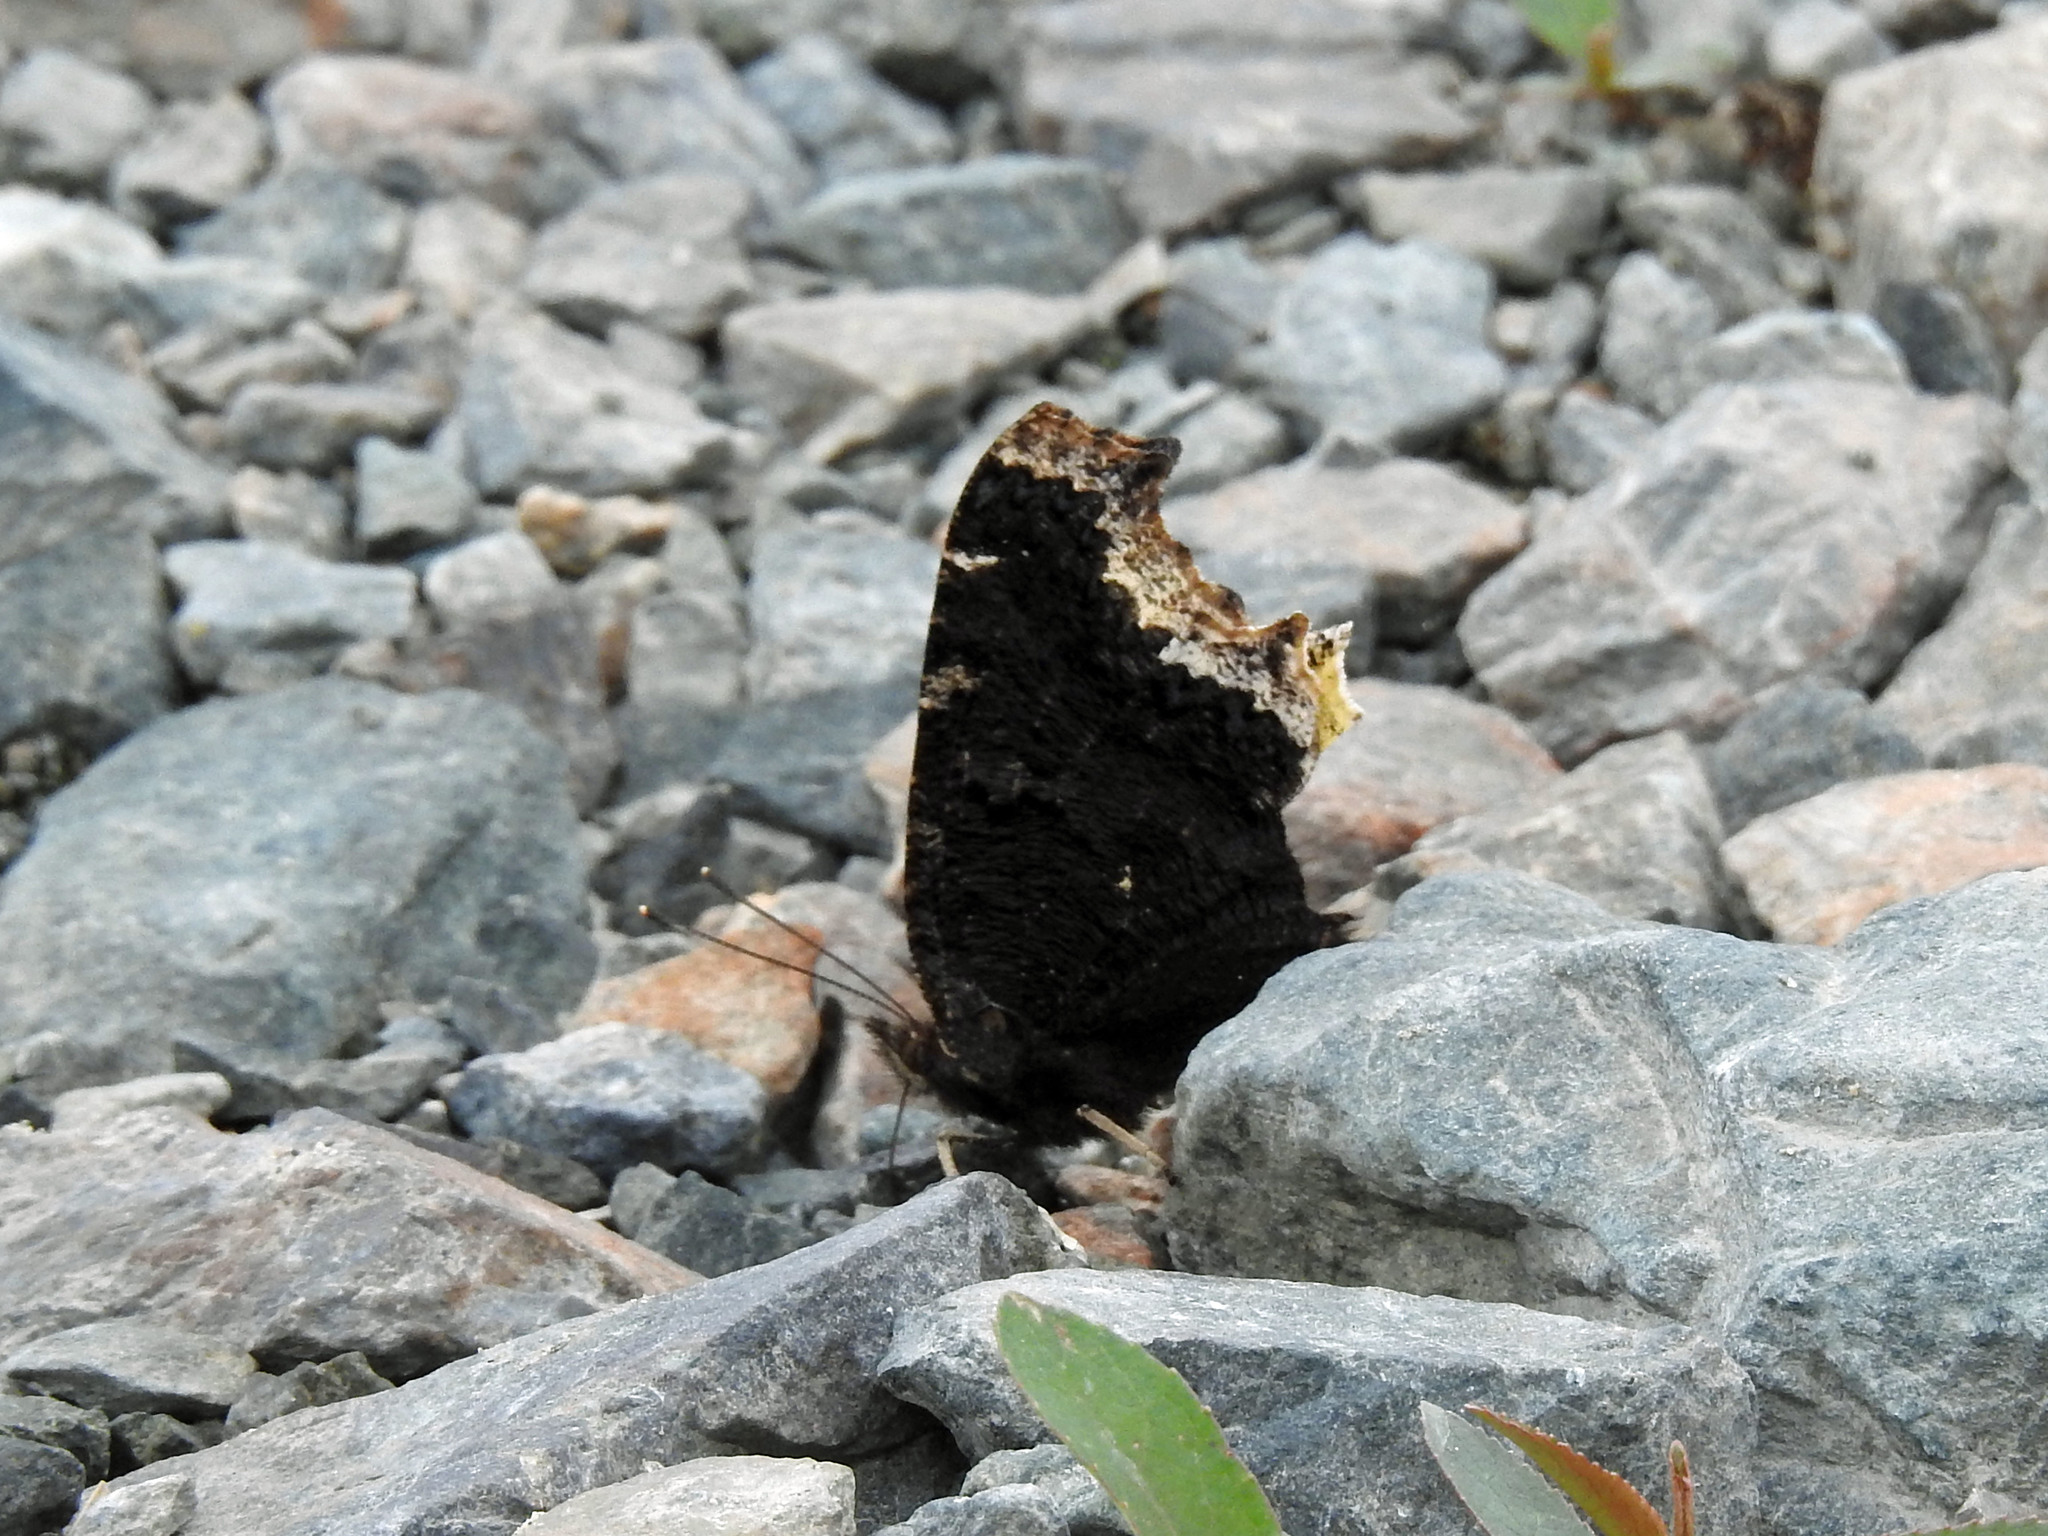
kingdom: Animalia
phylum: Arthropoda
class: Insecta
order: Lepidoptera
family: Nymphalidae
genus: Nymphalis
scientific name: Nymphalis antiopa
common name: Camberwell beauty
